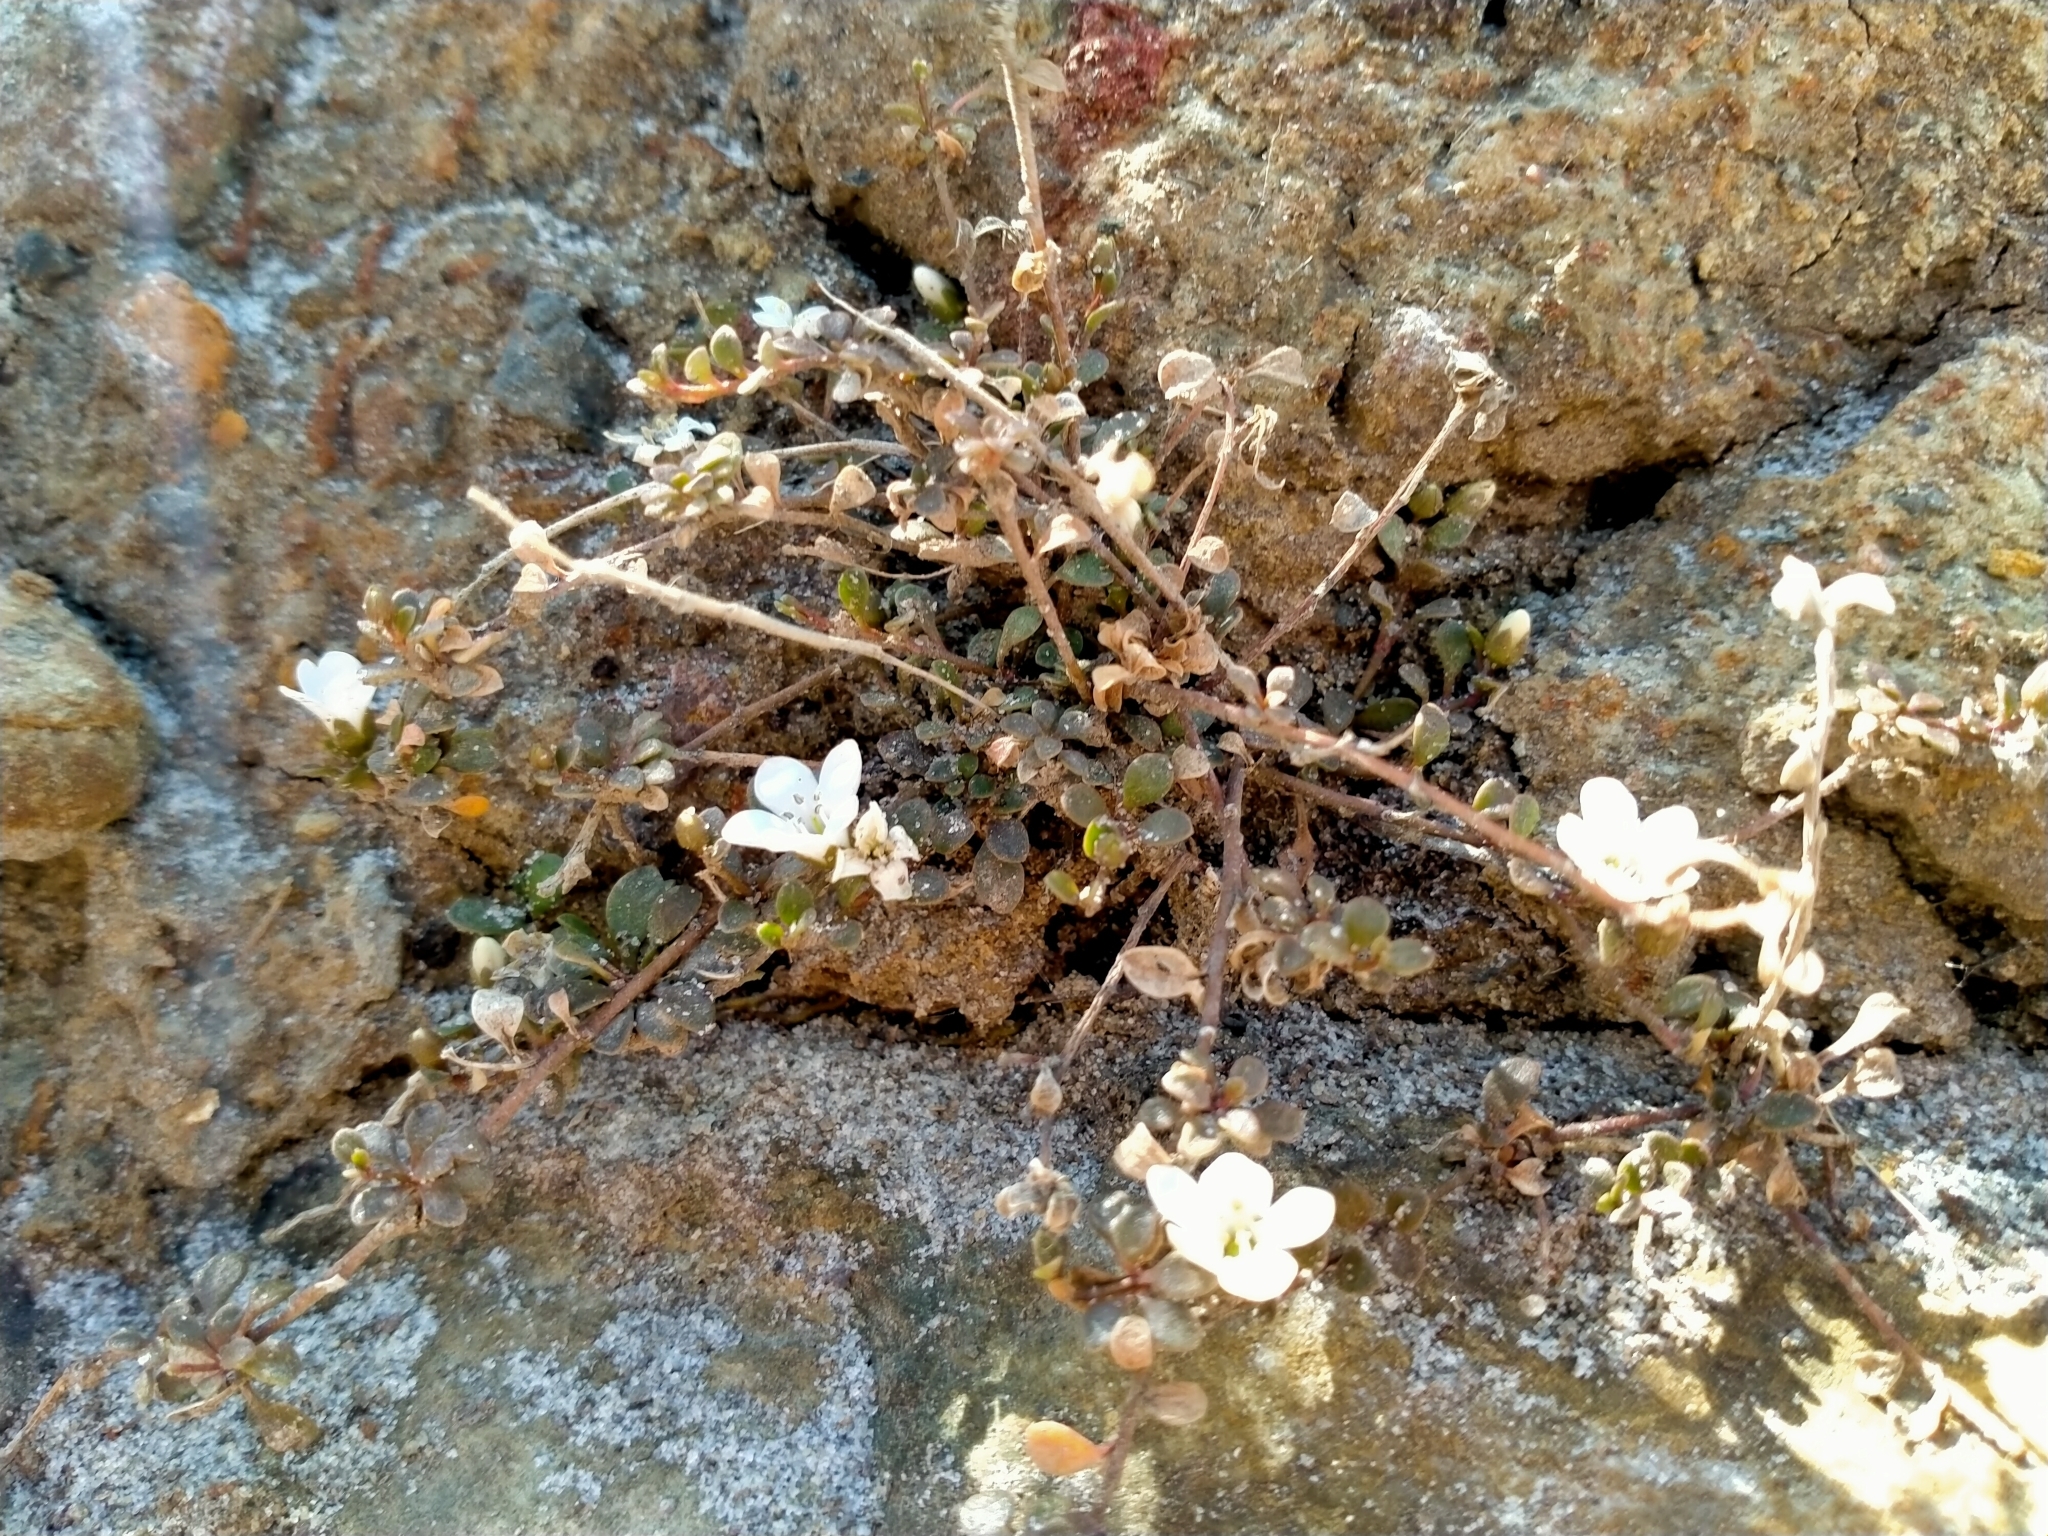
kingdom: Plantae
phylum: Tracheophyta
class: Magnoliopsida
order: Ericales
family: Primulaceae
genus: Samolus
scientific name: Samolus repens
